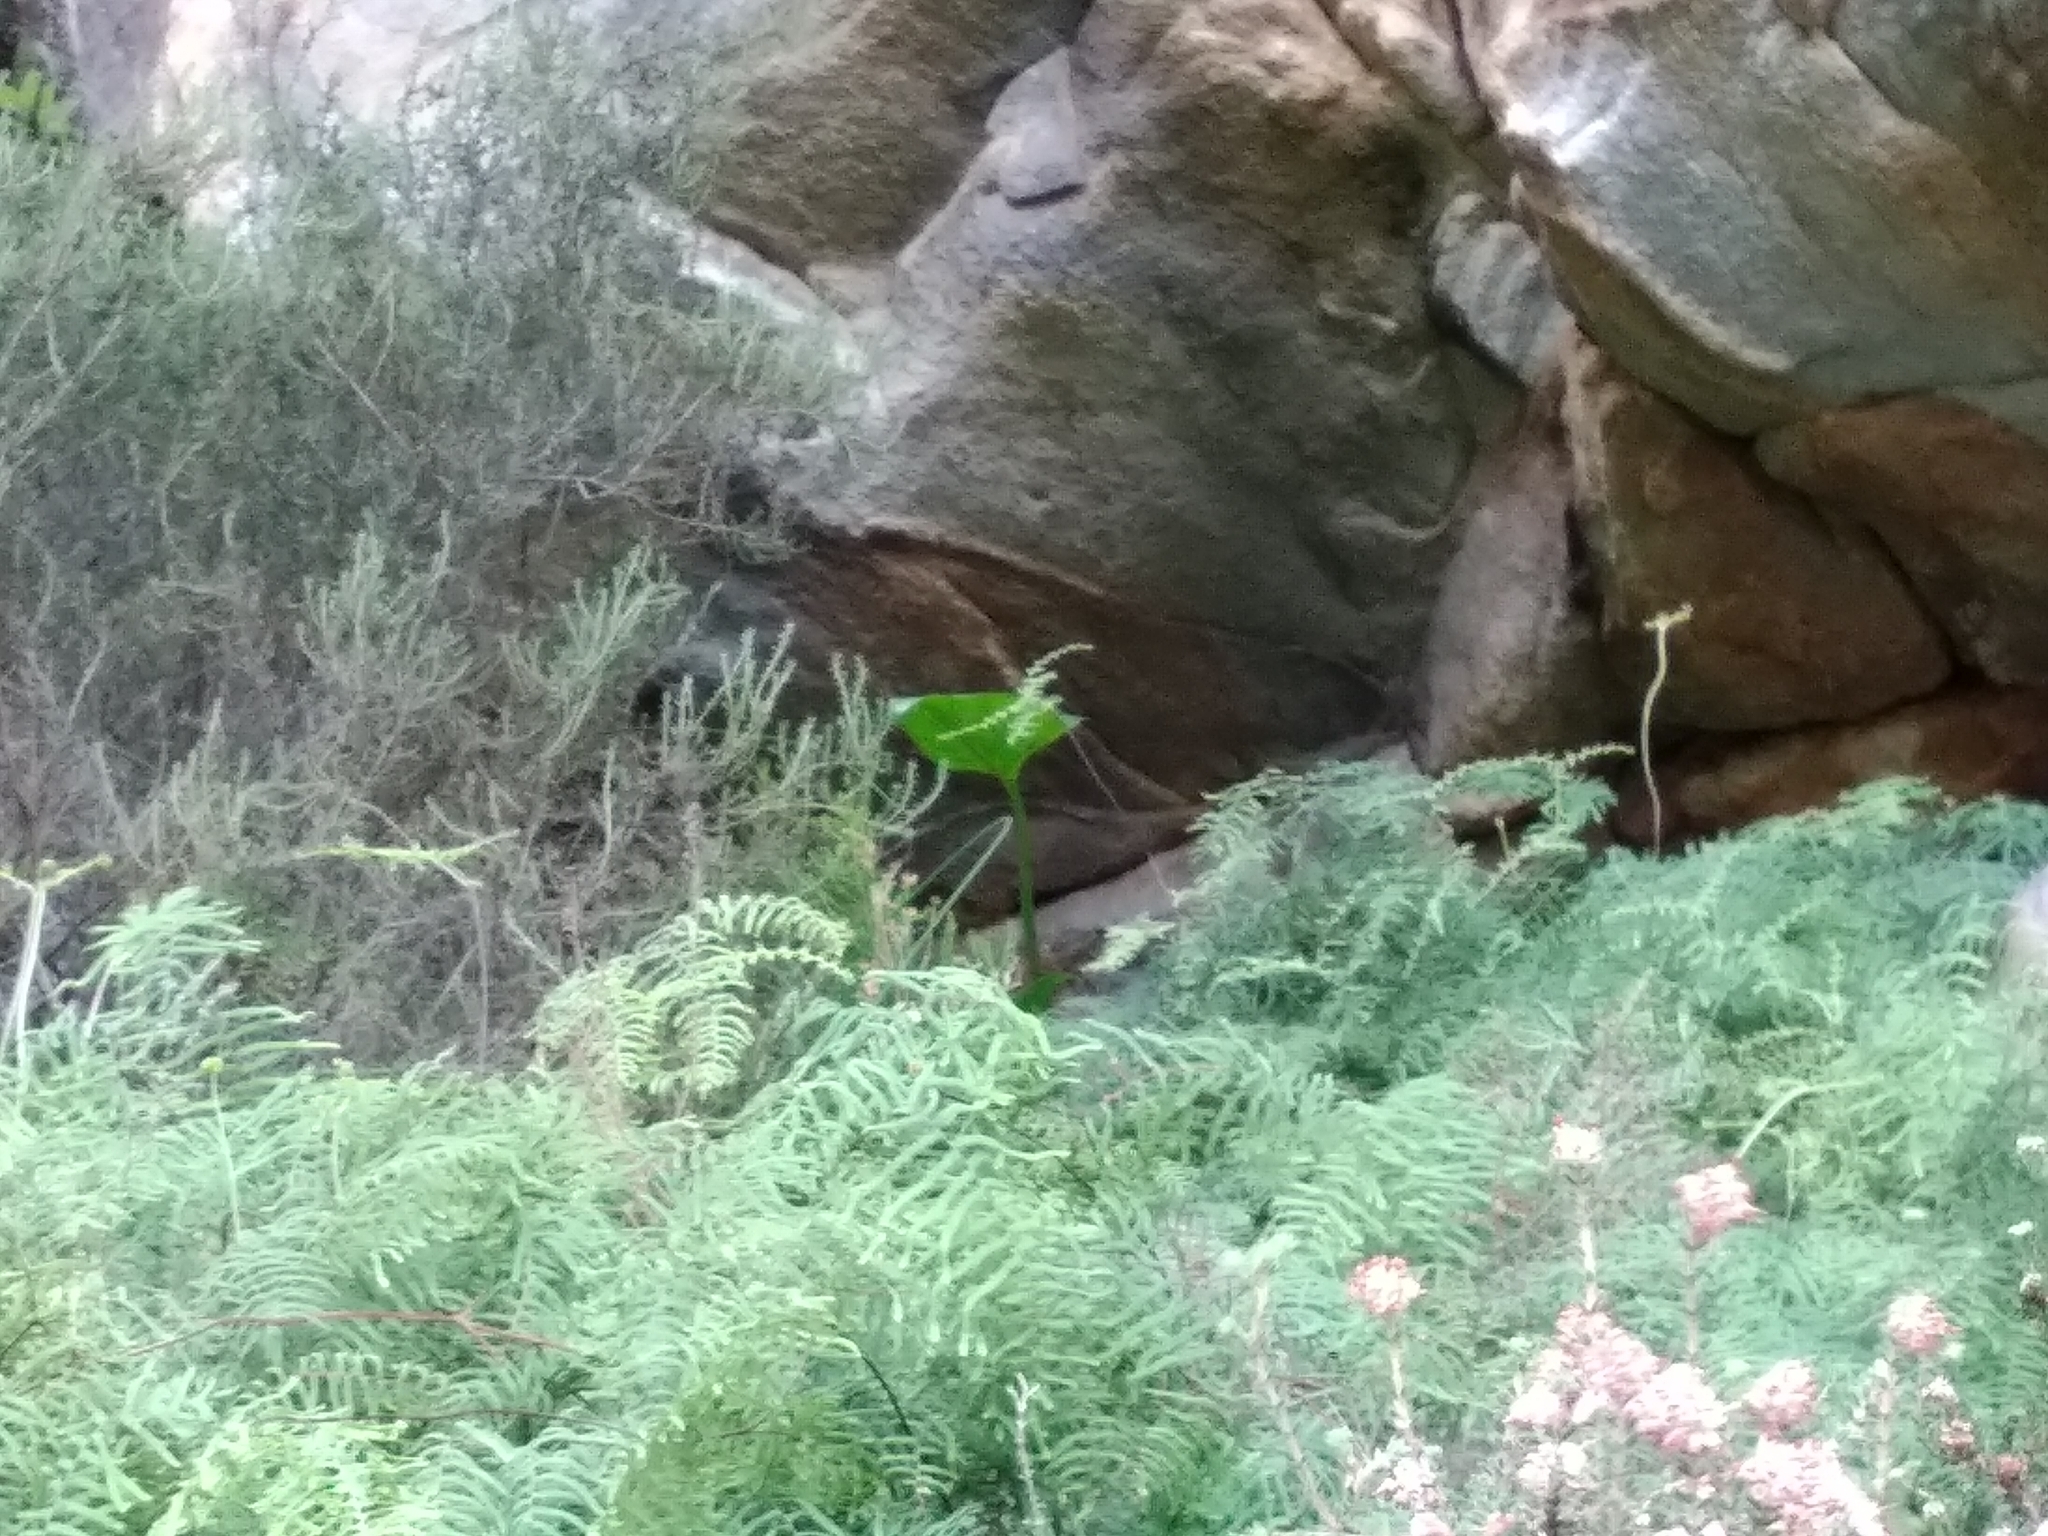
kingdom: Plantae
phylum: Tracheophyta
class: Liliopsida
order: Alismatales
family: Araceae
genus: Zantedeschia
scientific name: Zantedeschia aethiopica
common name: Altar-lily
